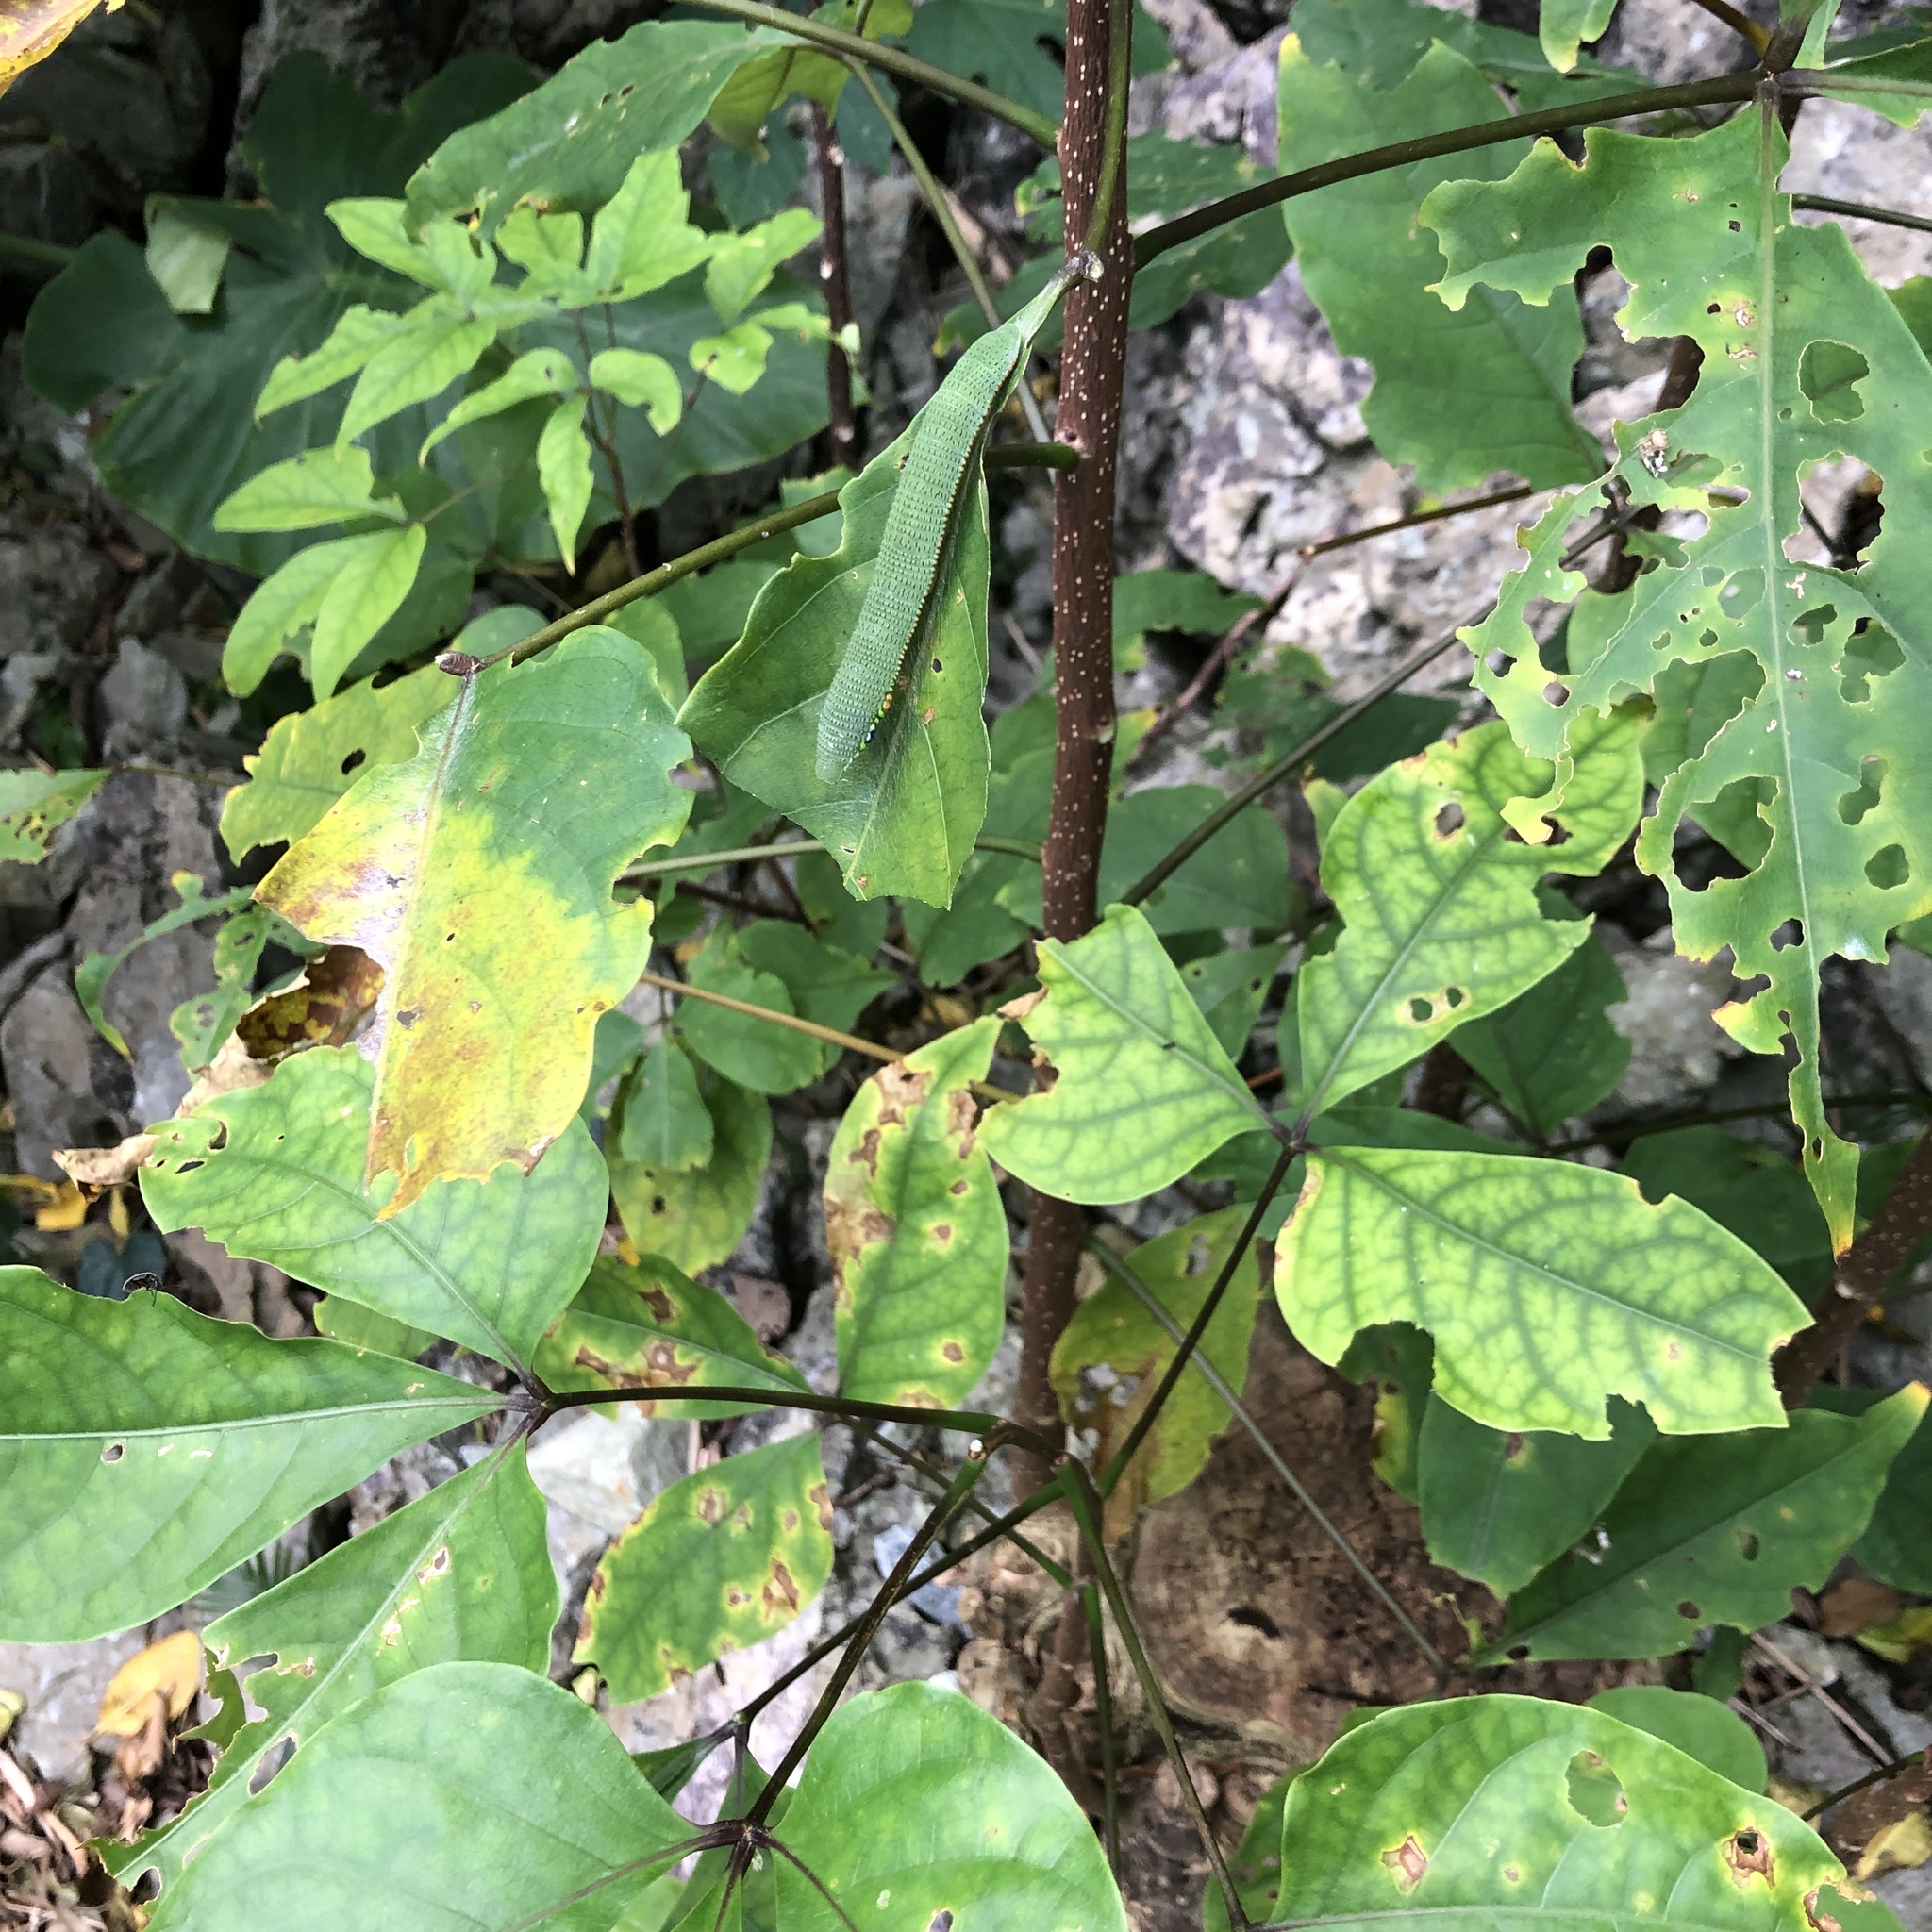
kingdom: Animalia
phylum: Arthropoda
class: Insecta
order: Lepidoptera
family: Pieridae
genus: Hebomoia
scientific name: Hebomoia glaucippe
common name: Great orange tip
